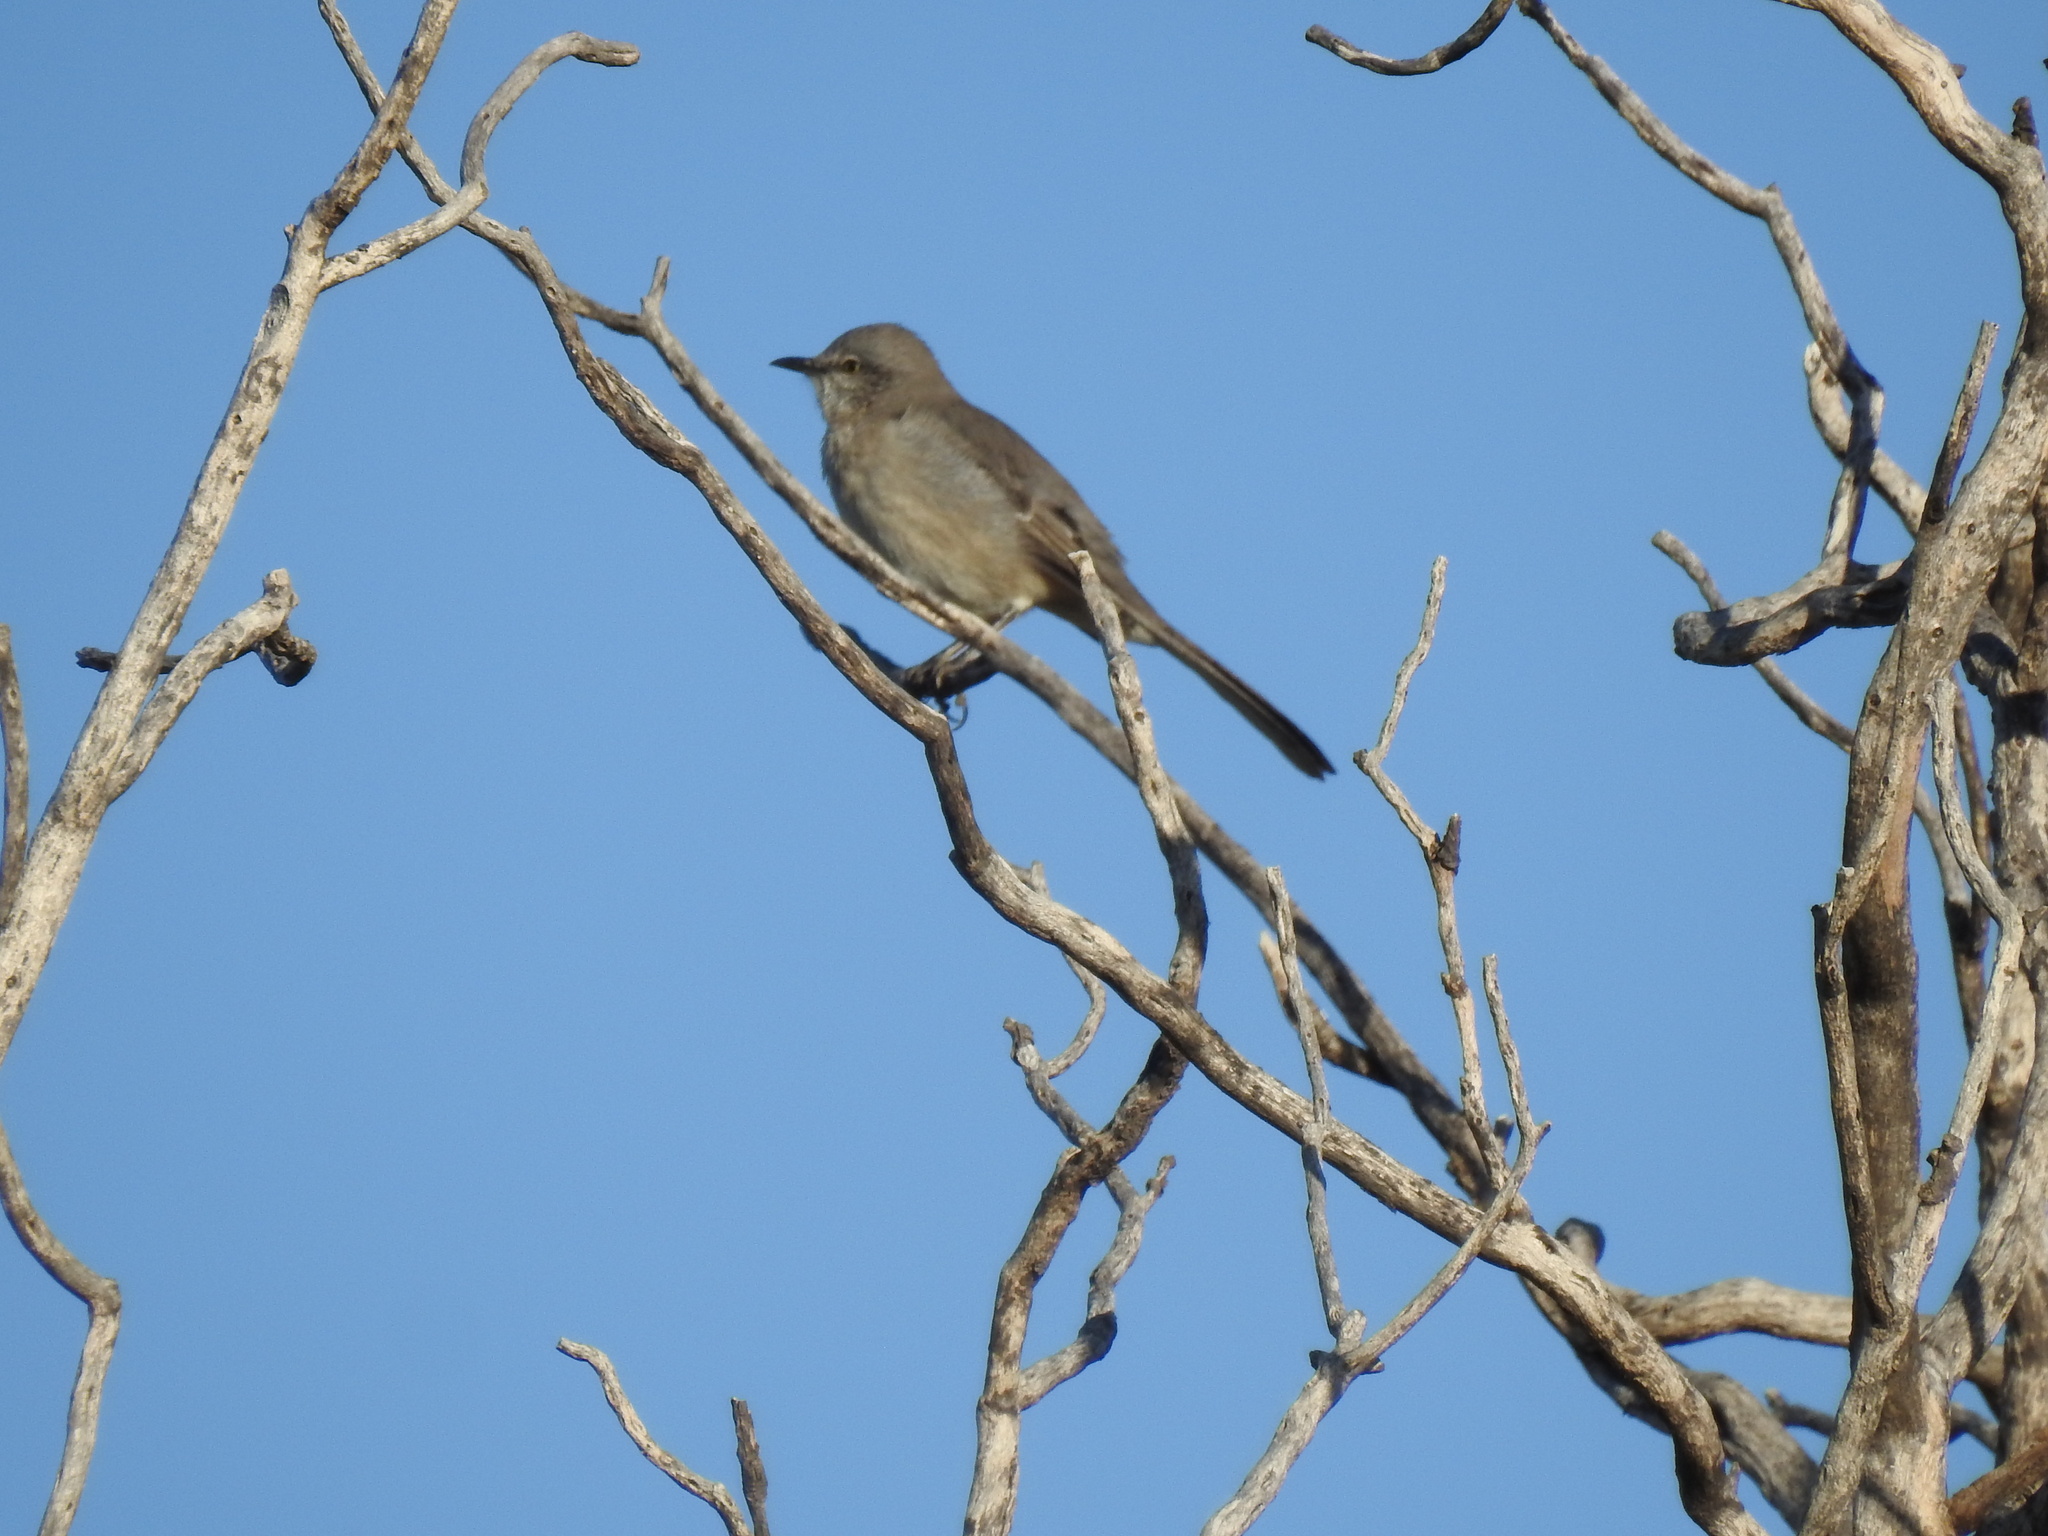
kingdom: Animalia
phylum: Chordata
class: Aves
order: Passeriformes
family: Mimidae
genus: Mimus
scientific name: Mimus polyglottos
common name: Northern mockingbird
